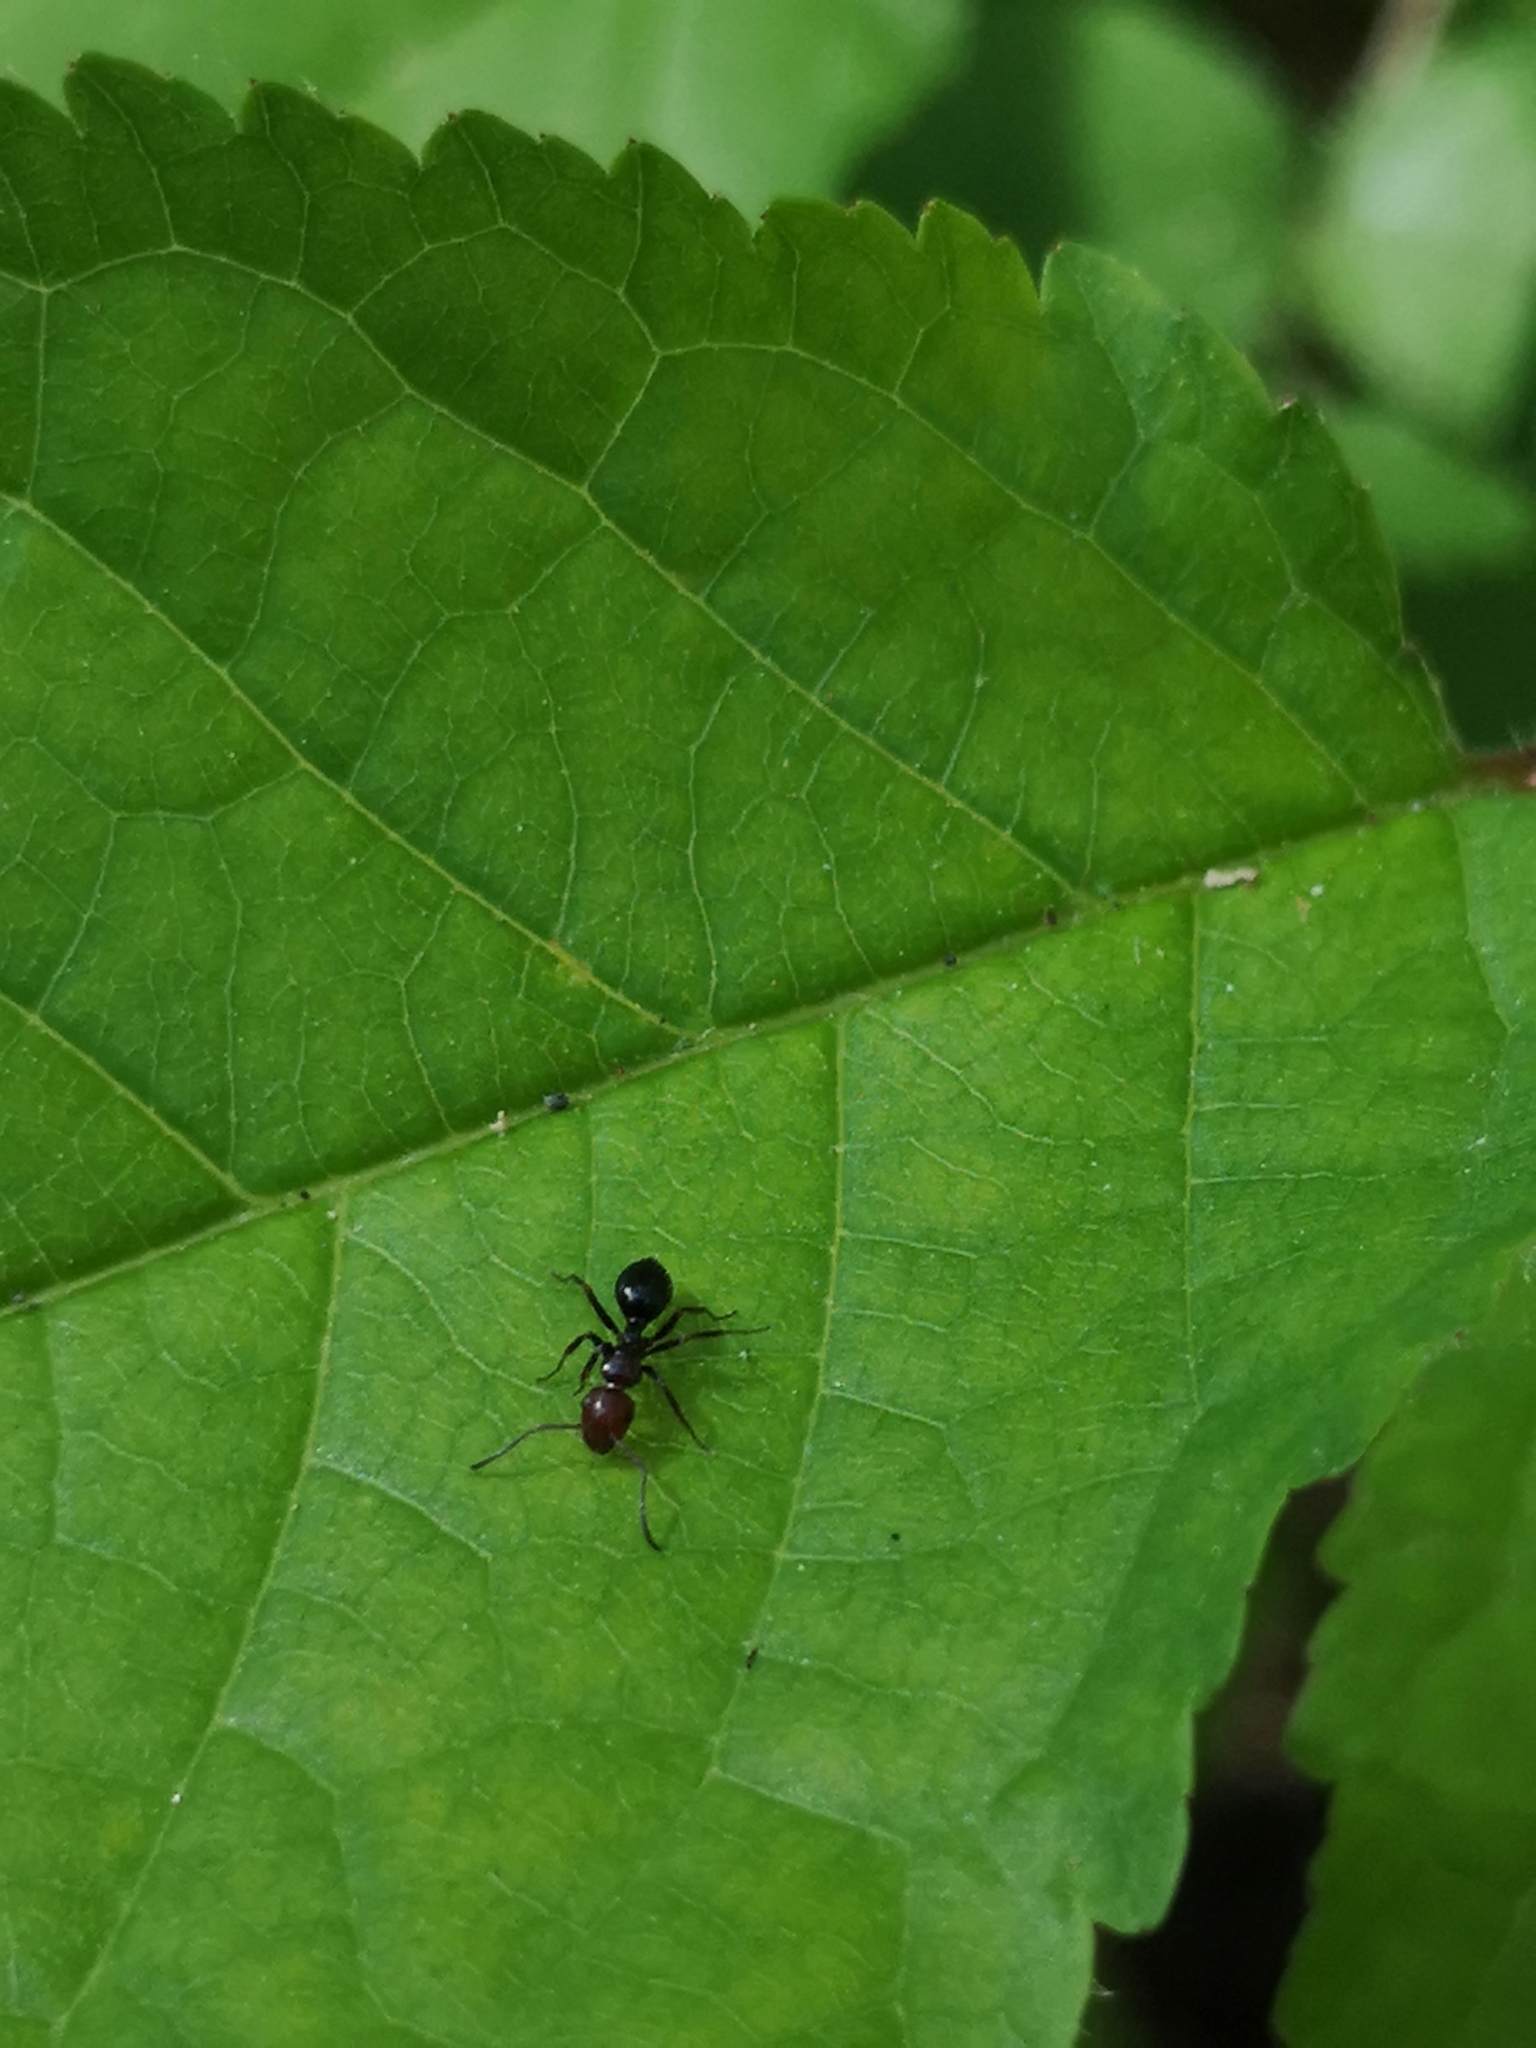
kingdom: Animalia
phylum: Arthropoda
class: Insecta
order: Hymenoptera
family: Formicidae
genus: Camponotus
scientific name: Camponotus lateralis
